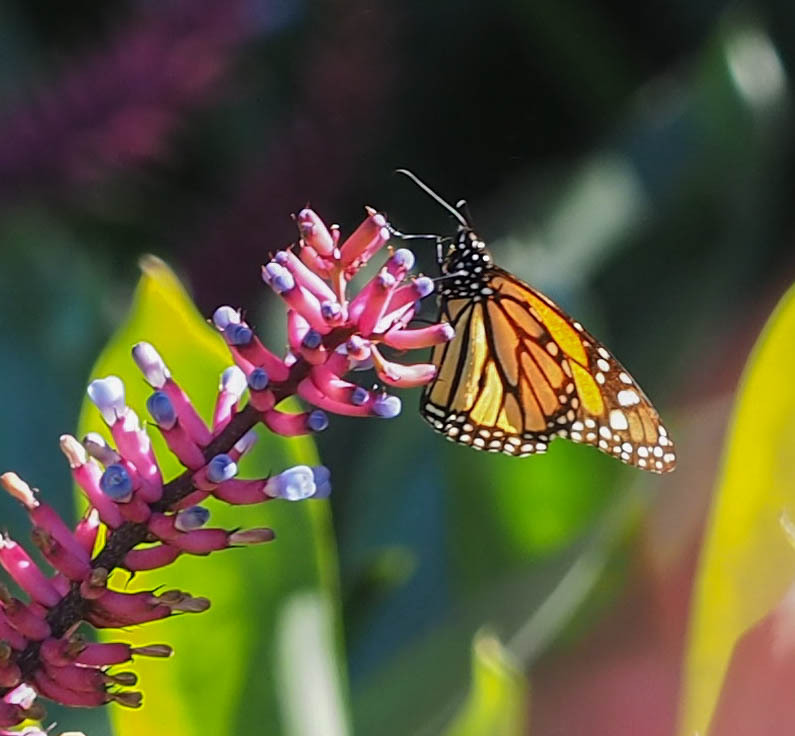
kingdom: Animalia
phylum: Arthropoda
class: Insecta
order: Lepidoptera
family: Nymphalidae
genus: Danaus
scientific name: Danaus plexippus
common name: Monarch
